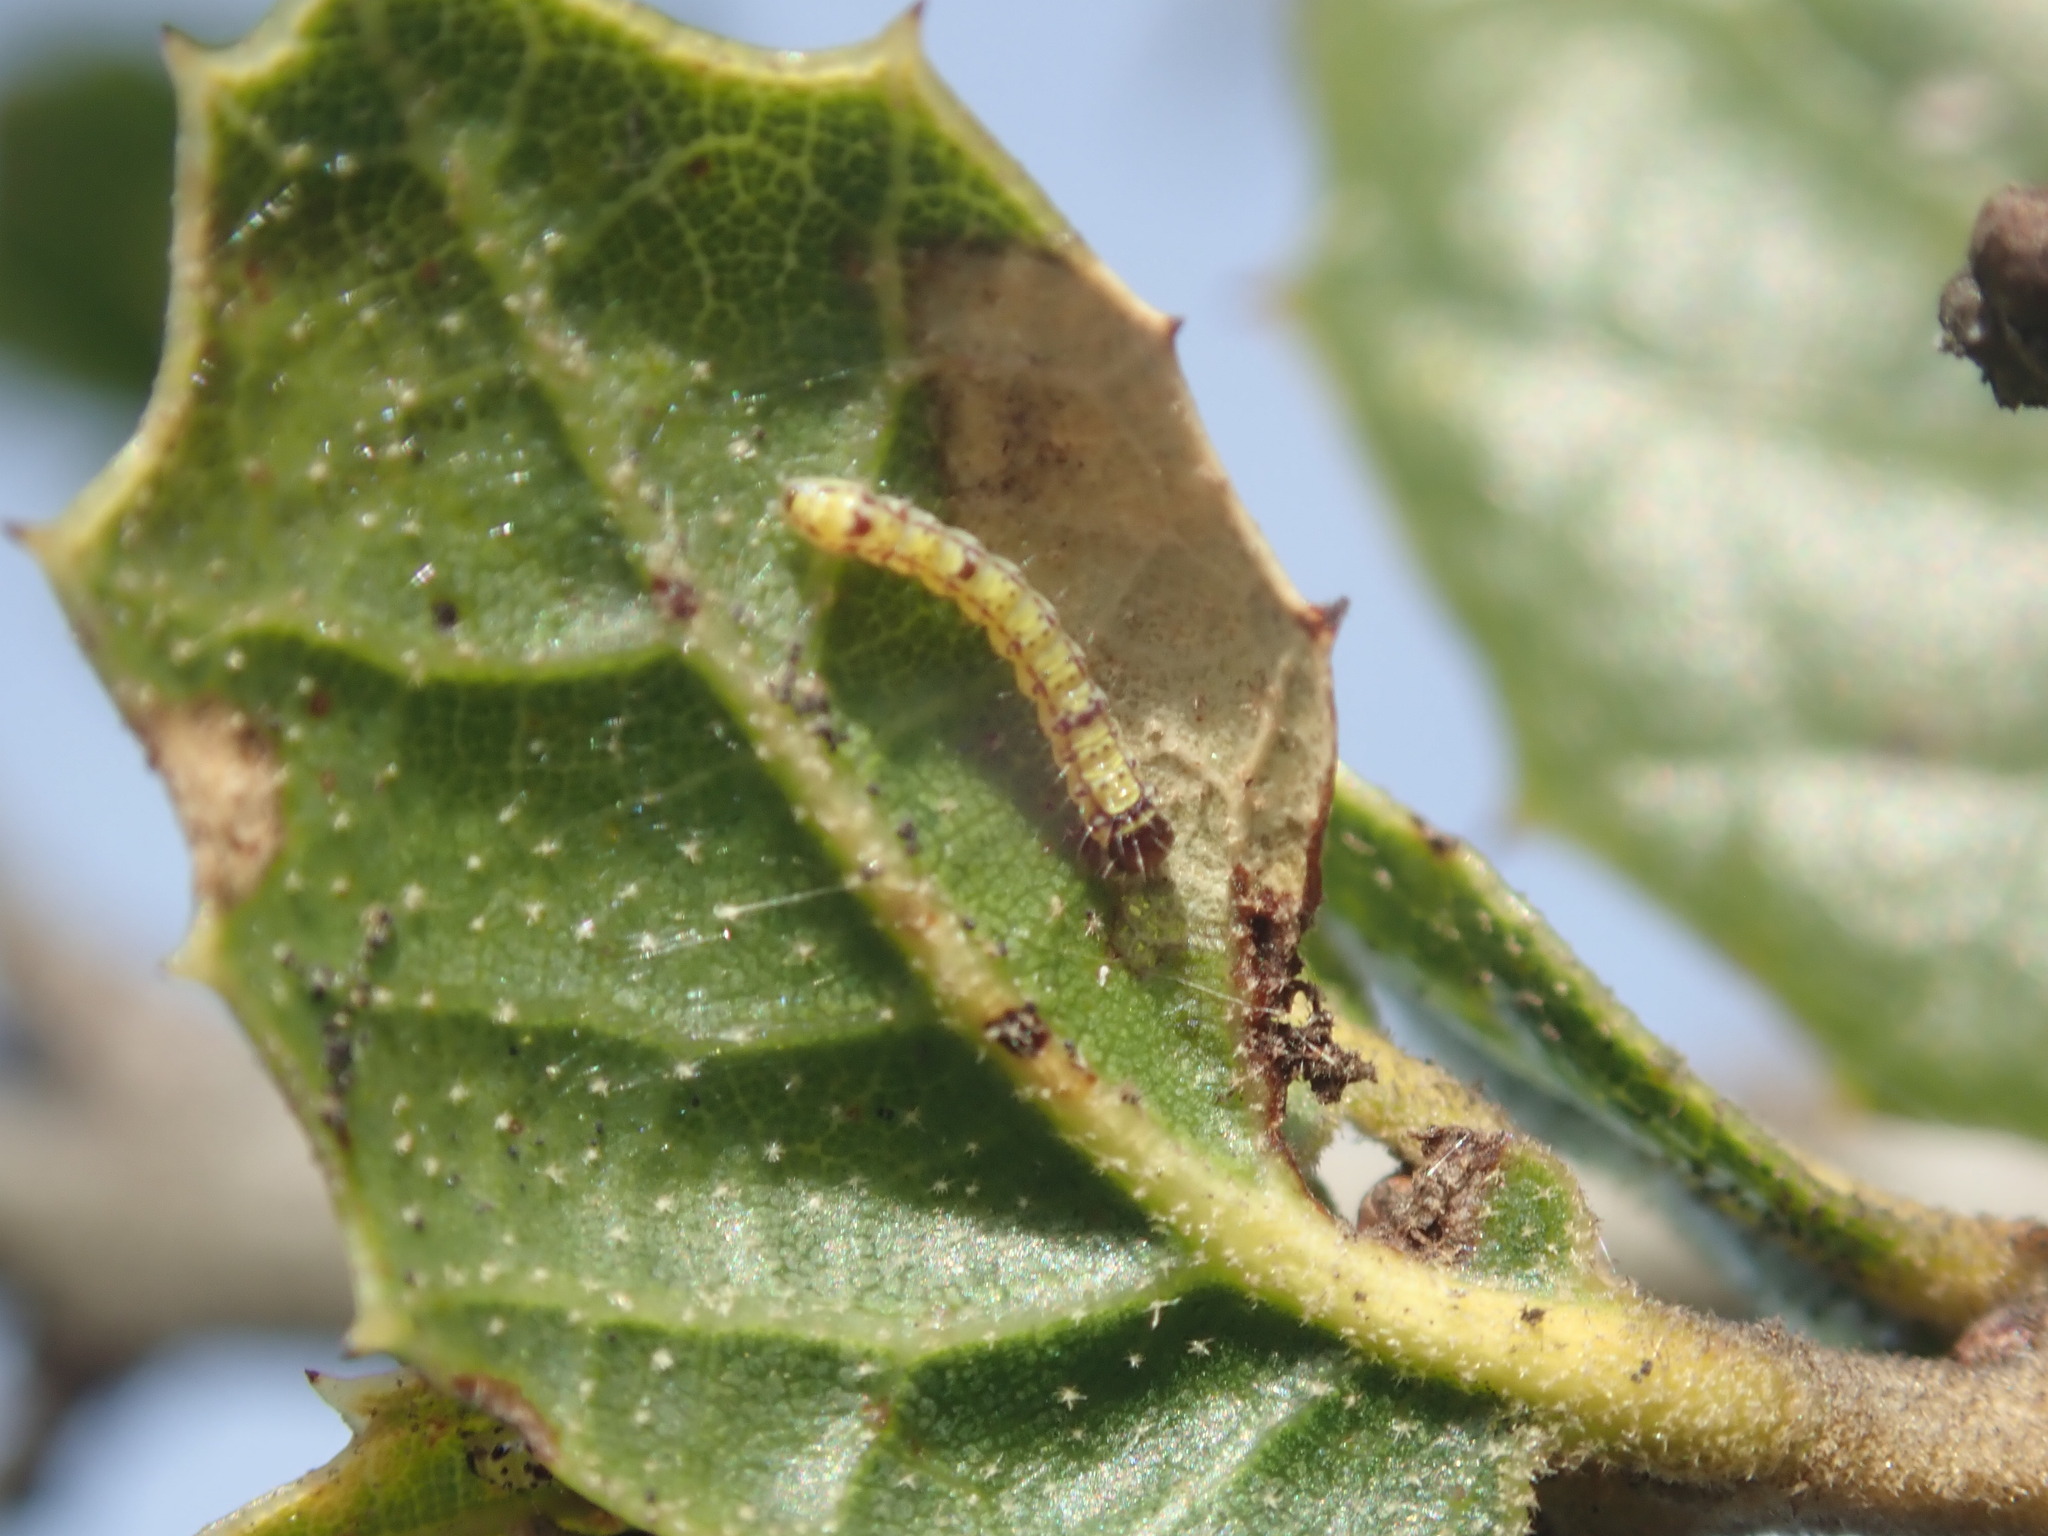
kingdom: Animalia
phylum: Arthropoda
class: Insecta
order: Lepidoptera
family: Notodontidae
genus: Phryganidia
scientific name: Phryganidia californica
